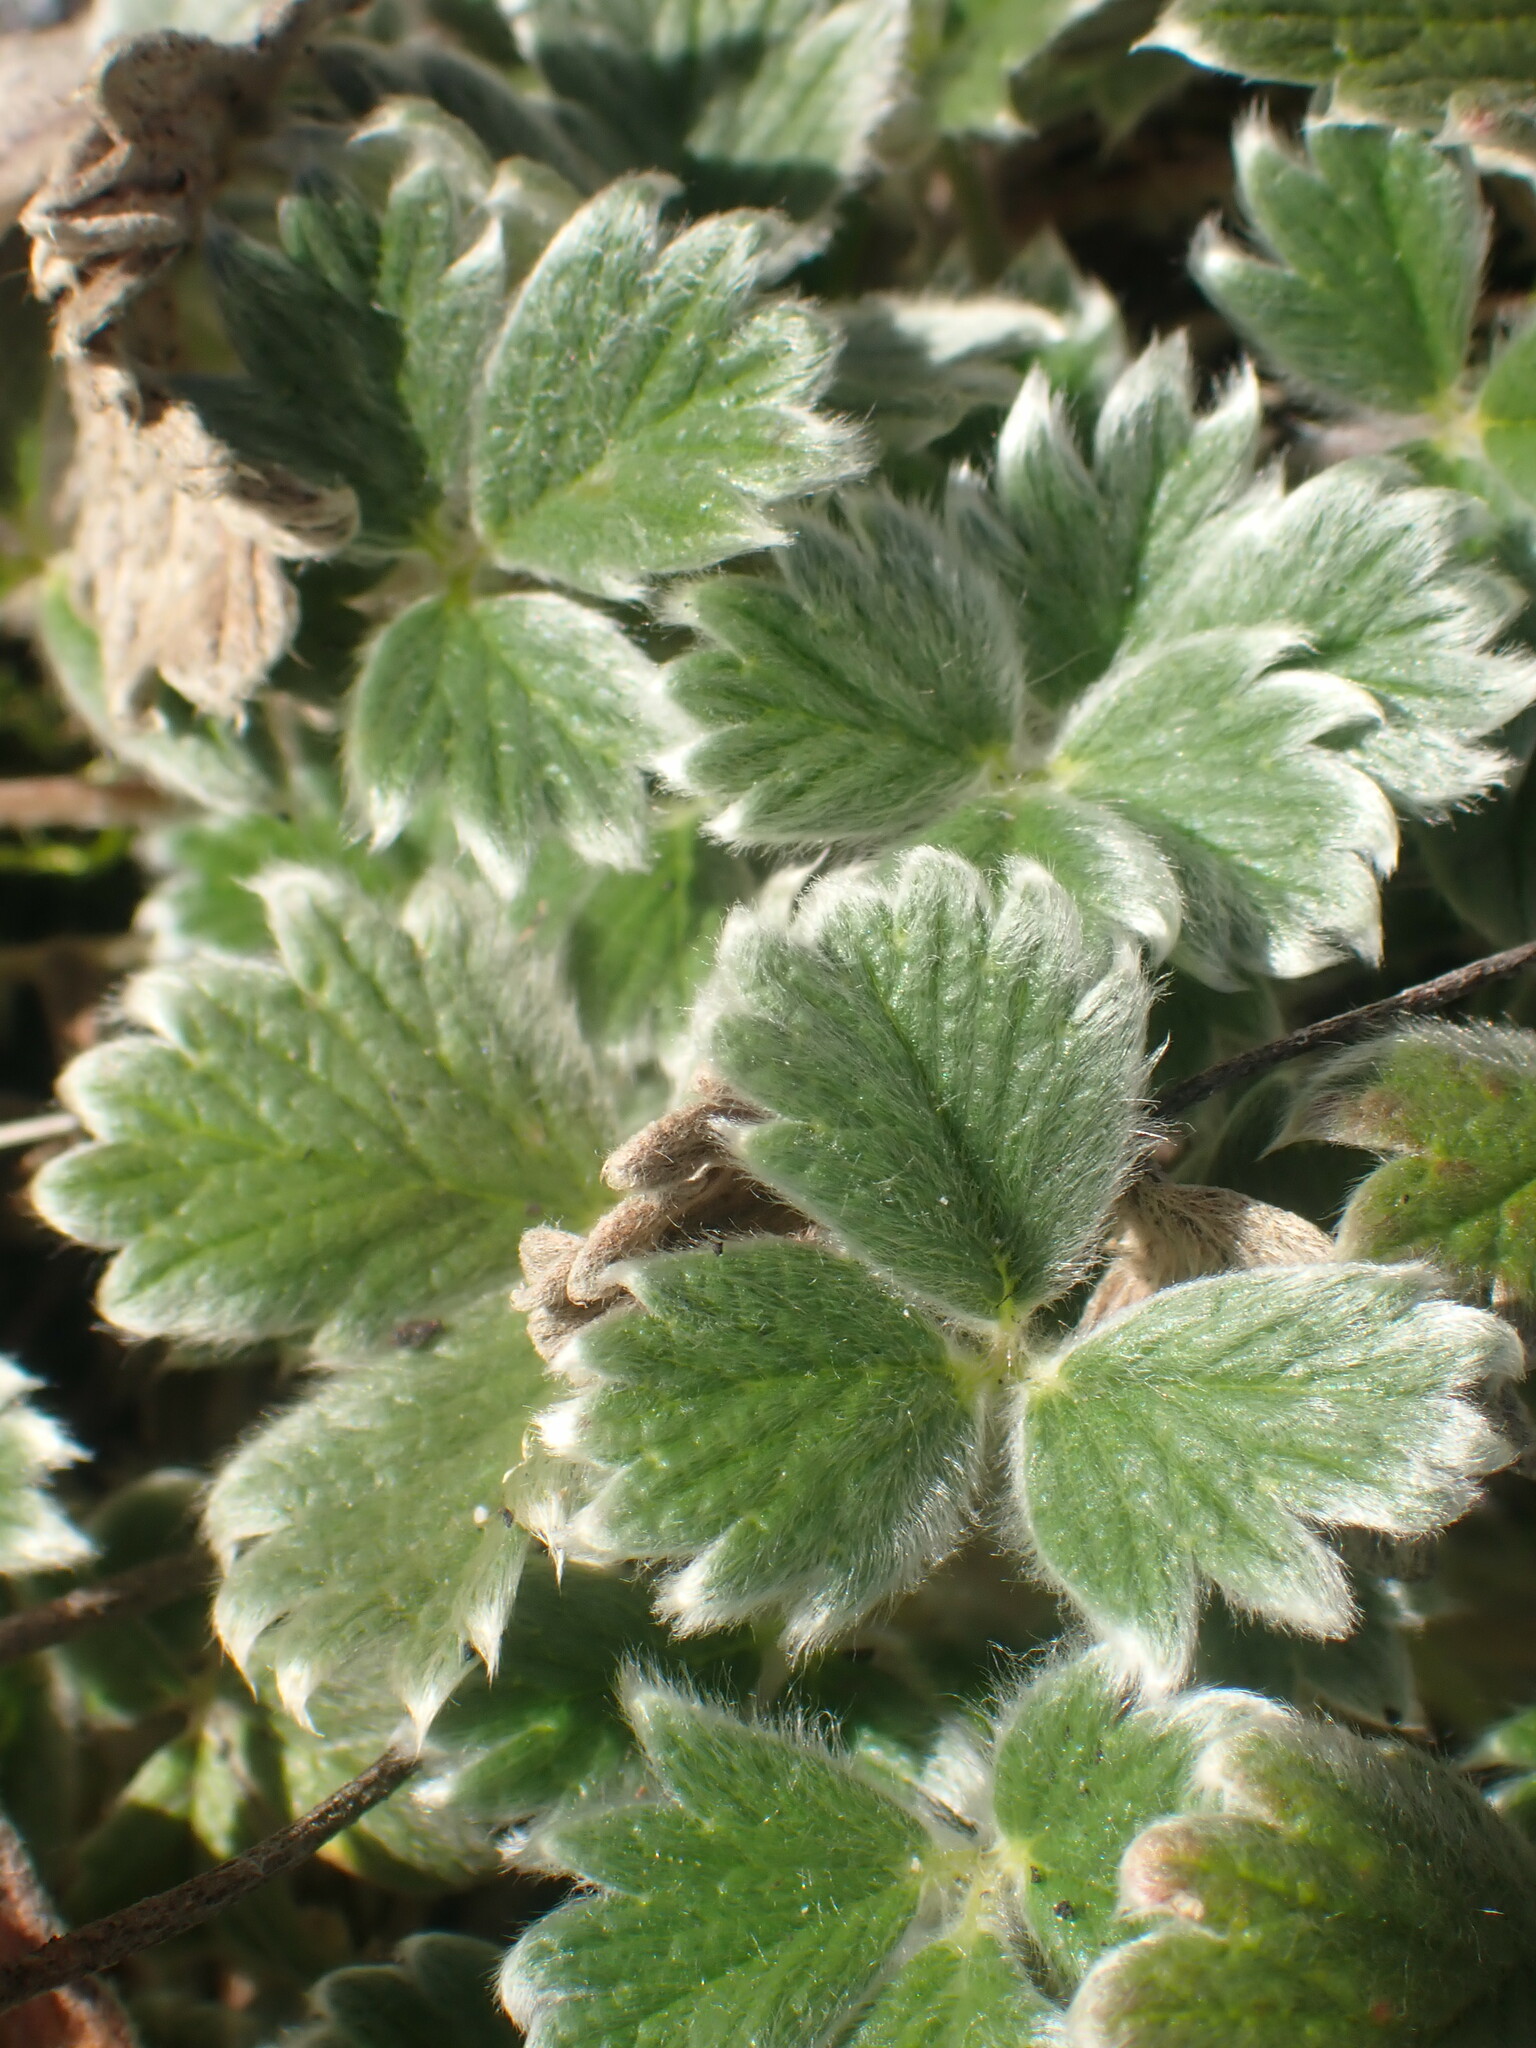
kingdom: Plantae
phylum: Tracheophyta
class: Magnoliopsida
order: Rosales
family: Rosaceae
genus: Potentilla
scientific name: Potentilla villosa
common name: Northern cinquefoil
